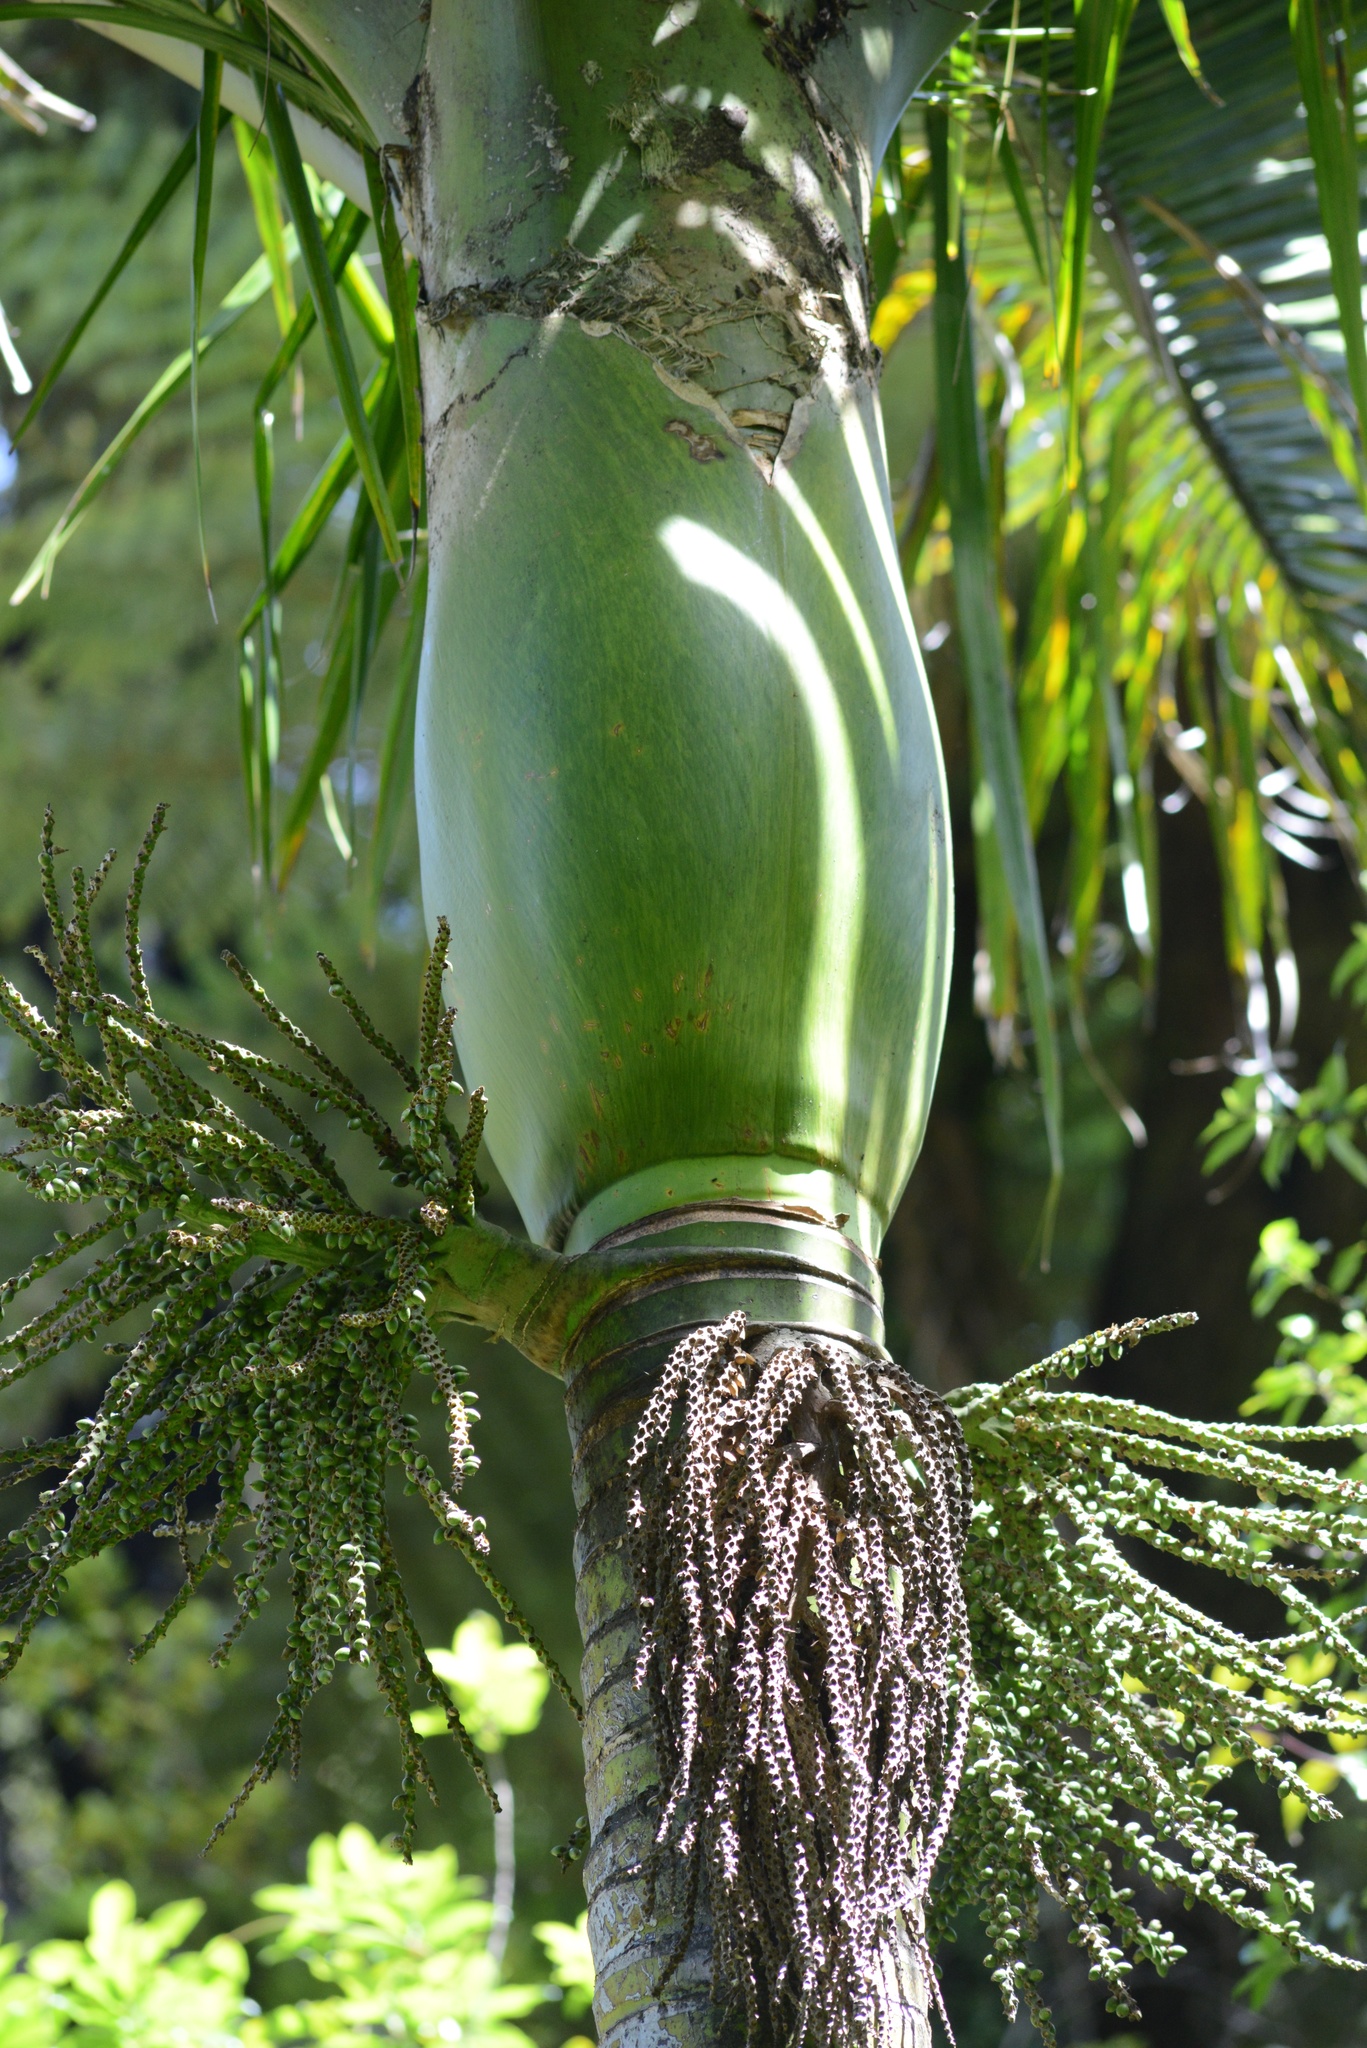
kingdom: Plantae
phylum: Tracheophyta
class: Liliopsida
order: Arecales
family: Arecaceae
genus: Rhopalostylis
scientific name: Rhopalostylis sapida
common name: Feather-duster palm
